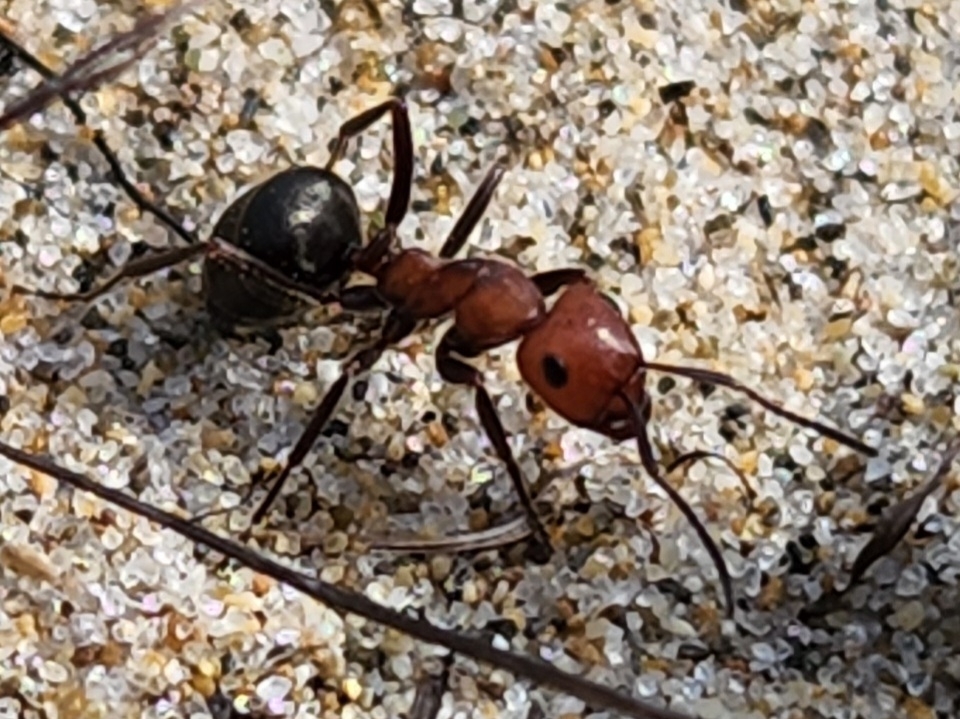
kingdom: Animalia
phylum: Arthropoda
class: Insecta
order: Hymenoptera
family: Formicidae
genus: Formica
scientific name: Formica obscuripes
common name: Western thatching ant
